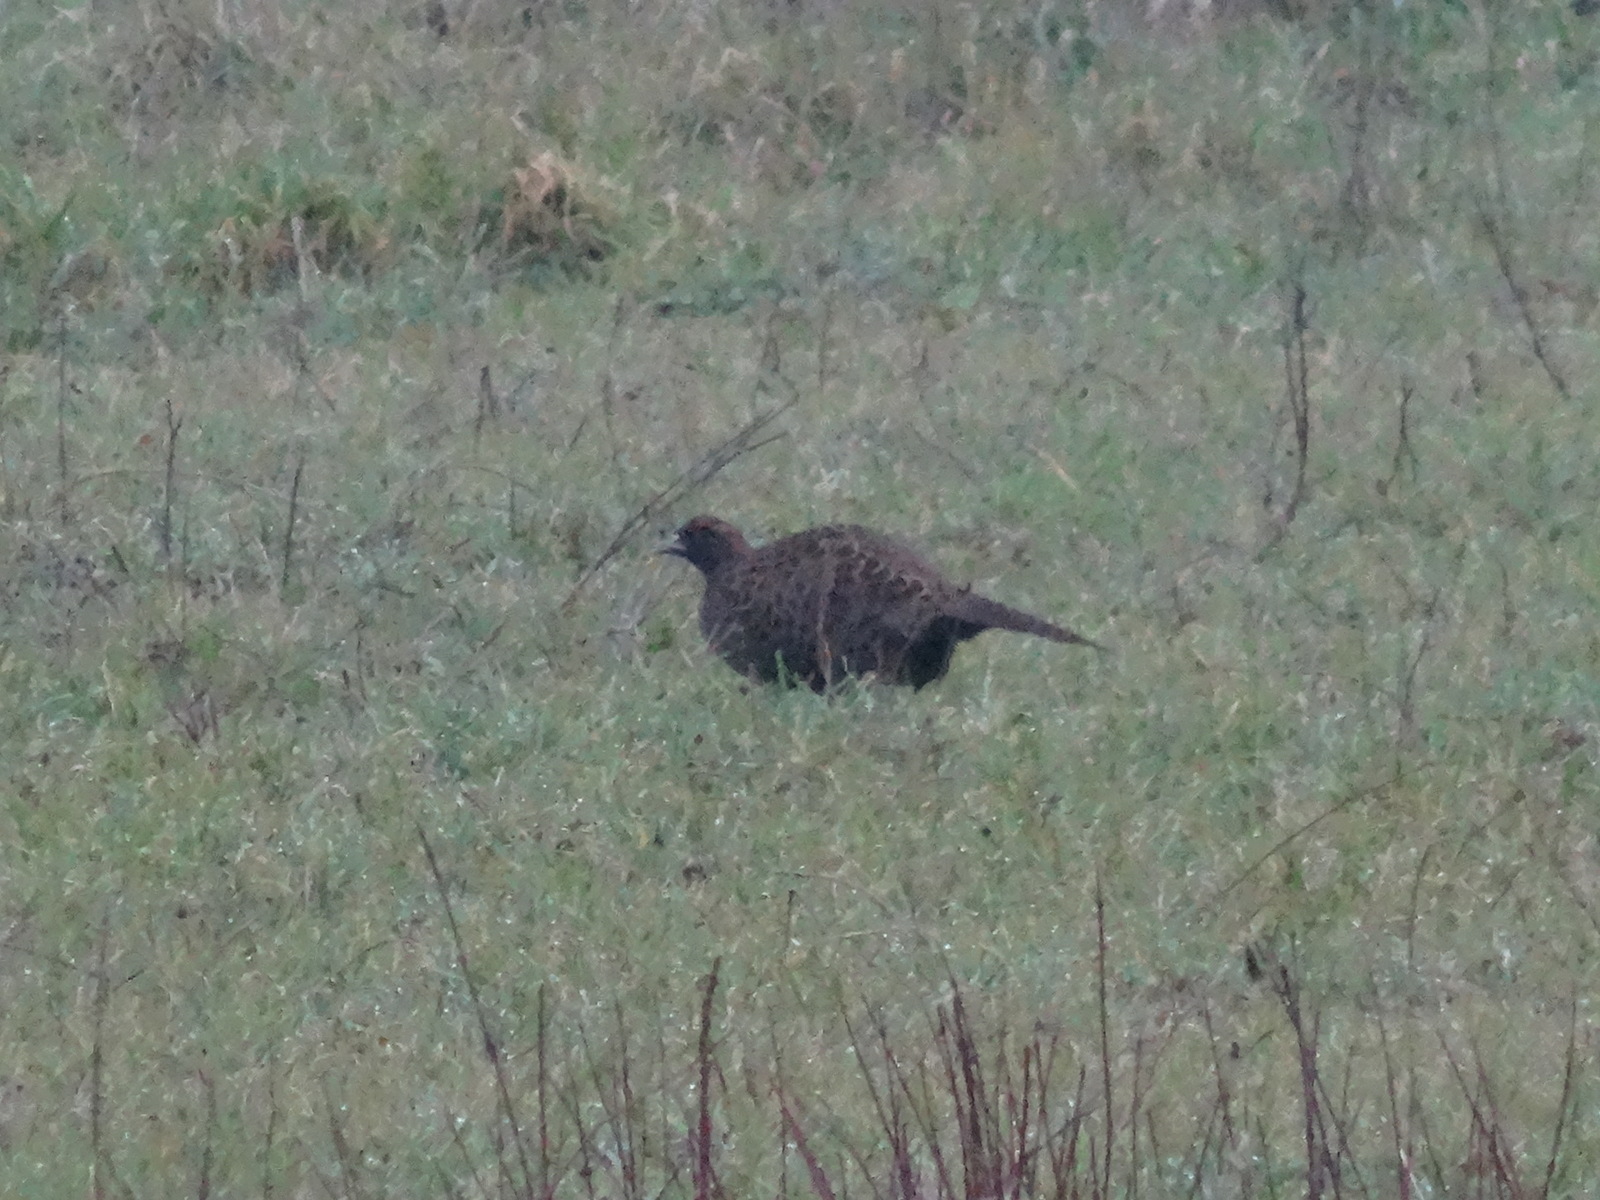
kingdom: Animalia
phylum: Chordata
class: Aves
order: Galliformes
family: Phasianidae
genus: Phasianus
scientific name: Phasianus colchicus
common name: Common pheasant
